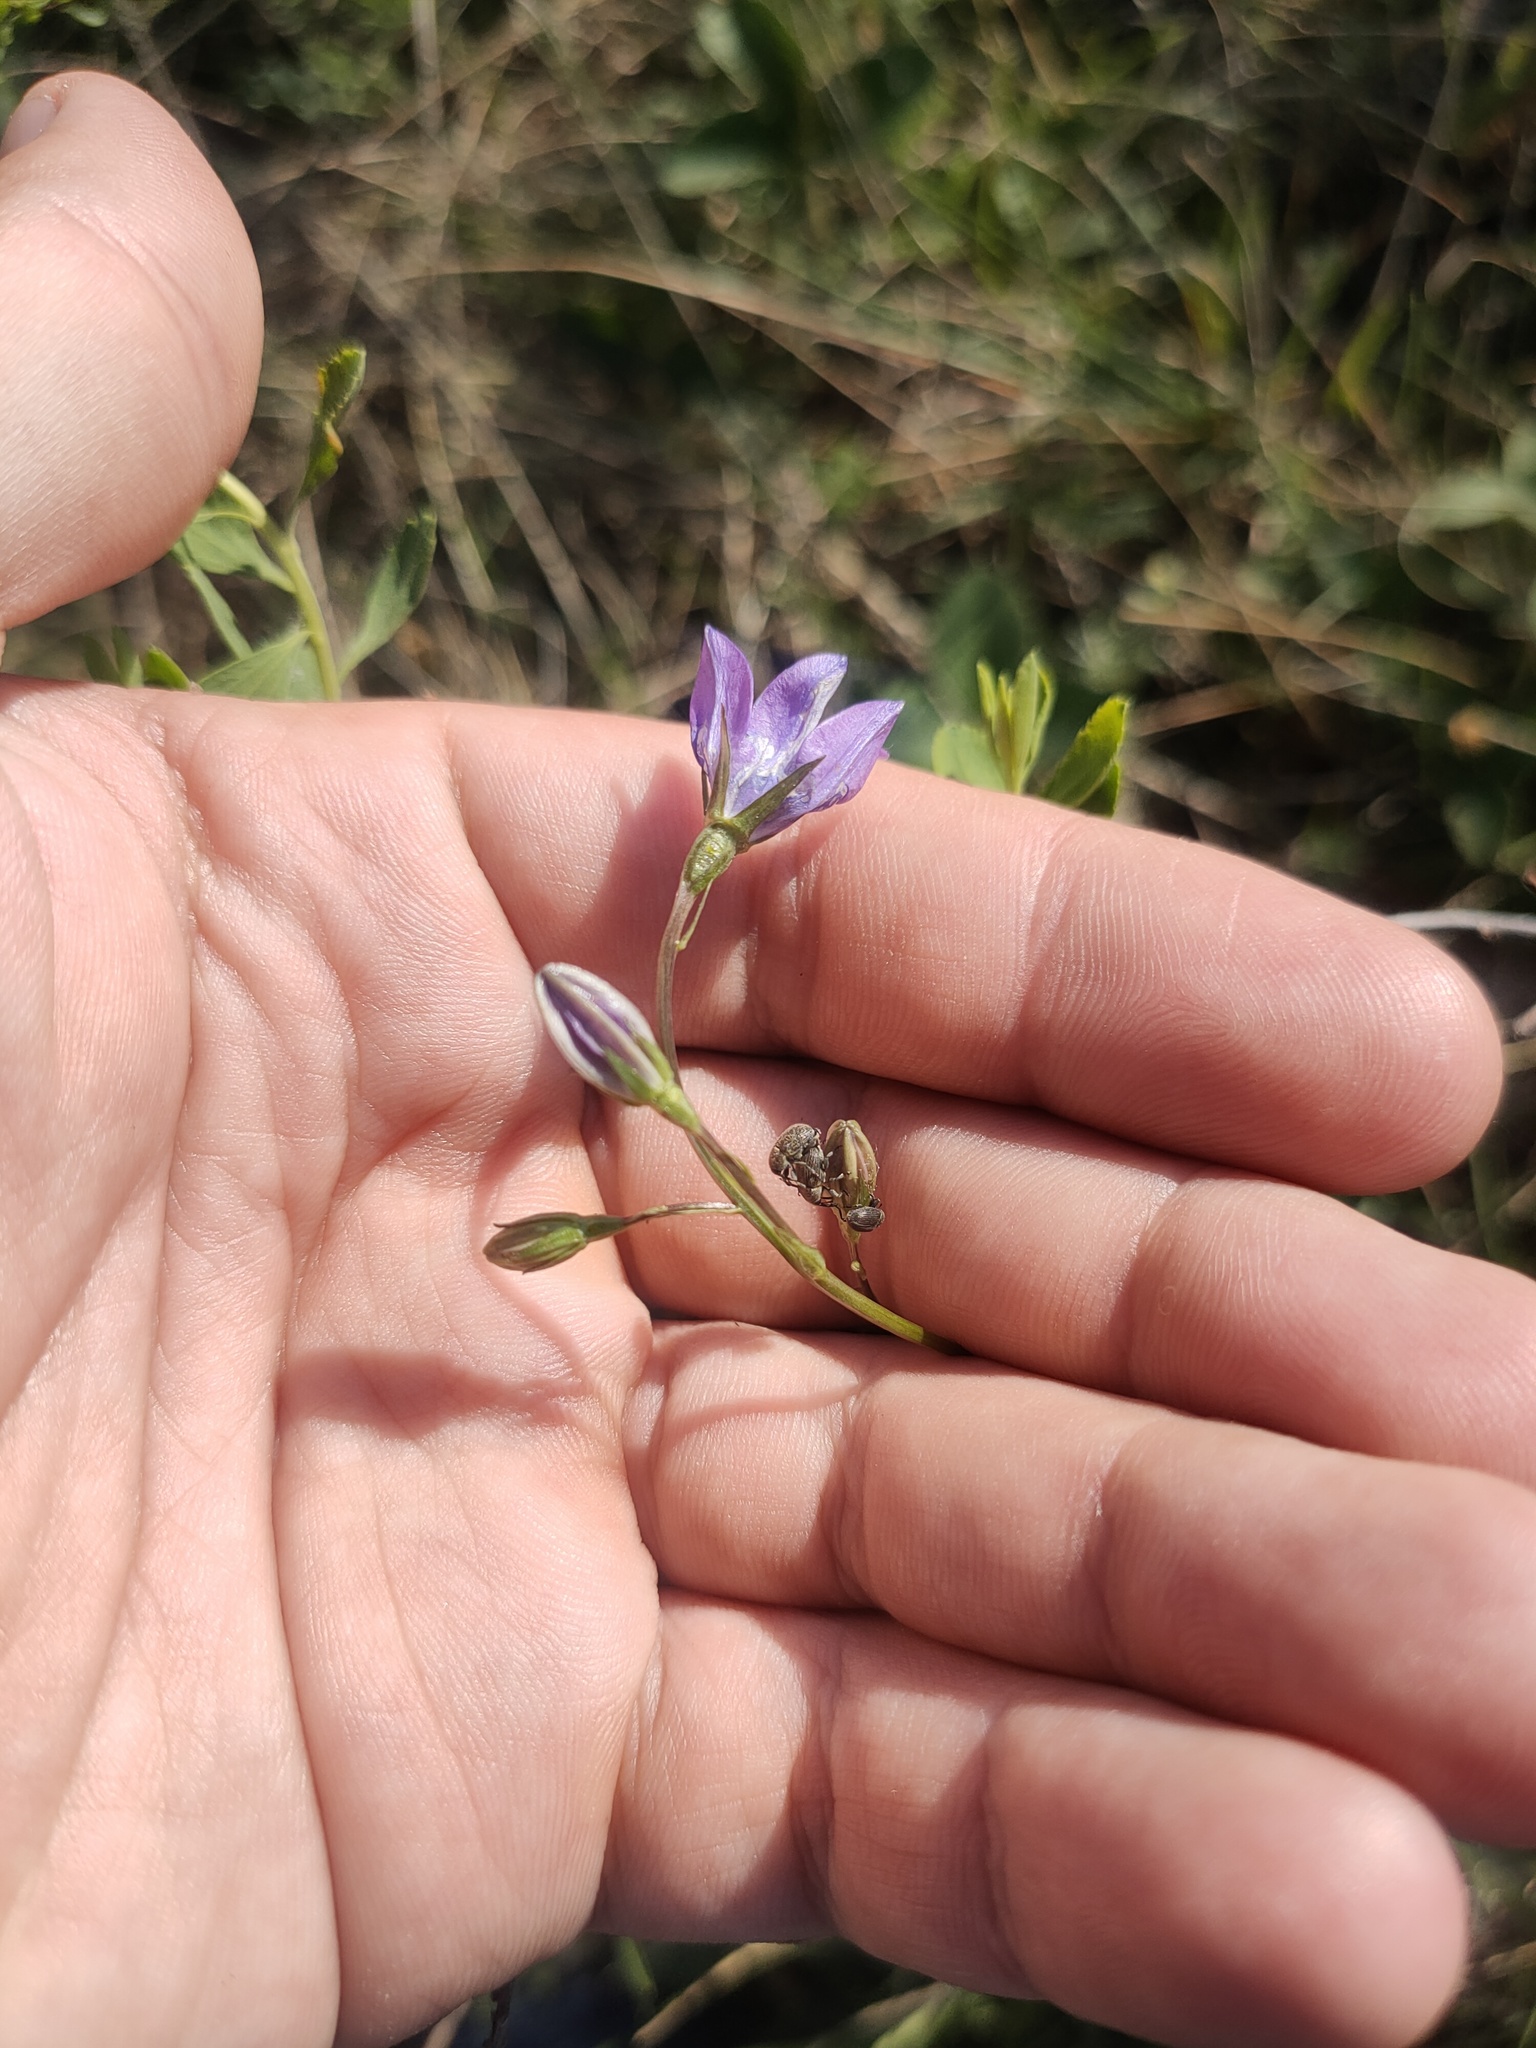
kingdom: Plantae
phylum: Tracheophyta
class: Magnoliopsida
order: Asterales
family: Campanulaceae
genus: Campanula
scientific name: Campanula stevenii
